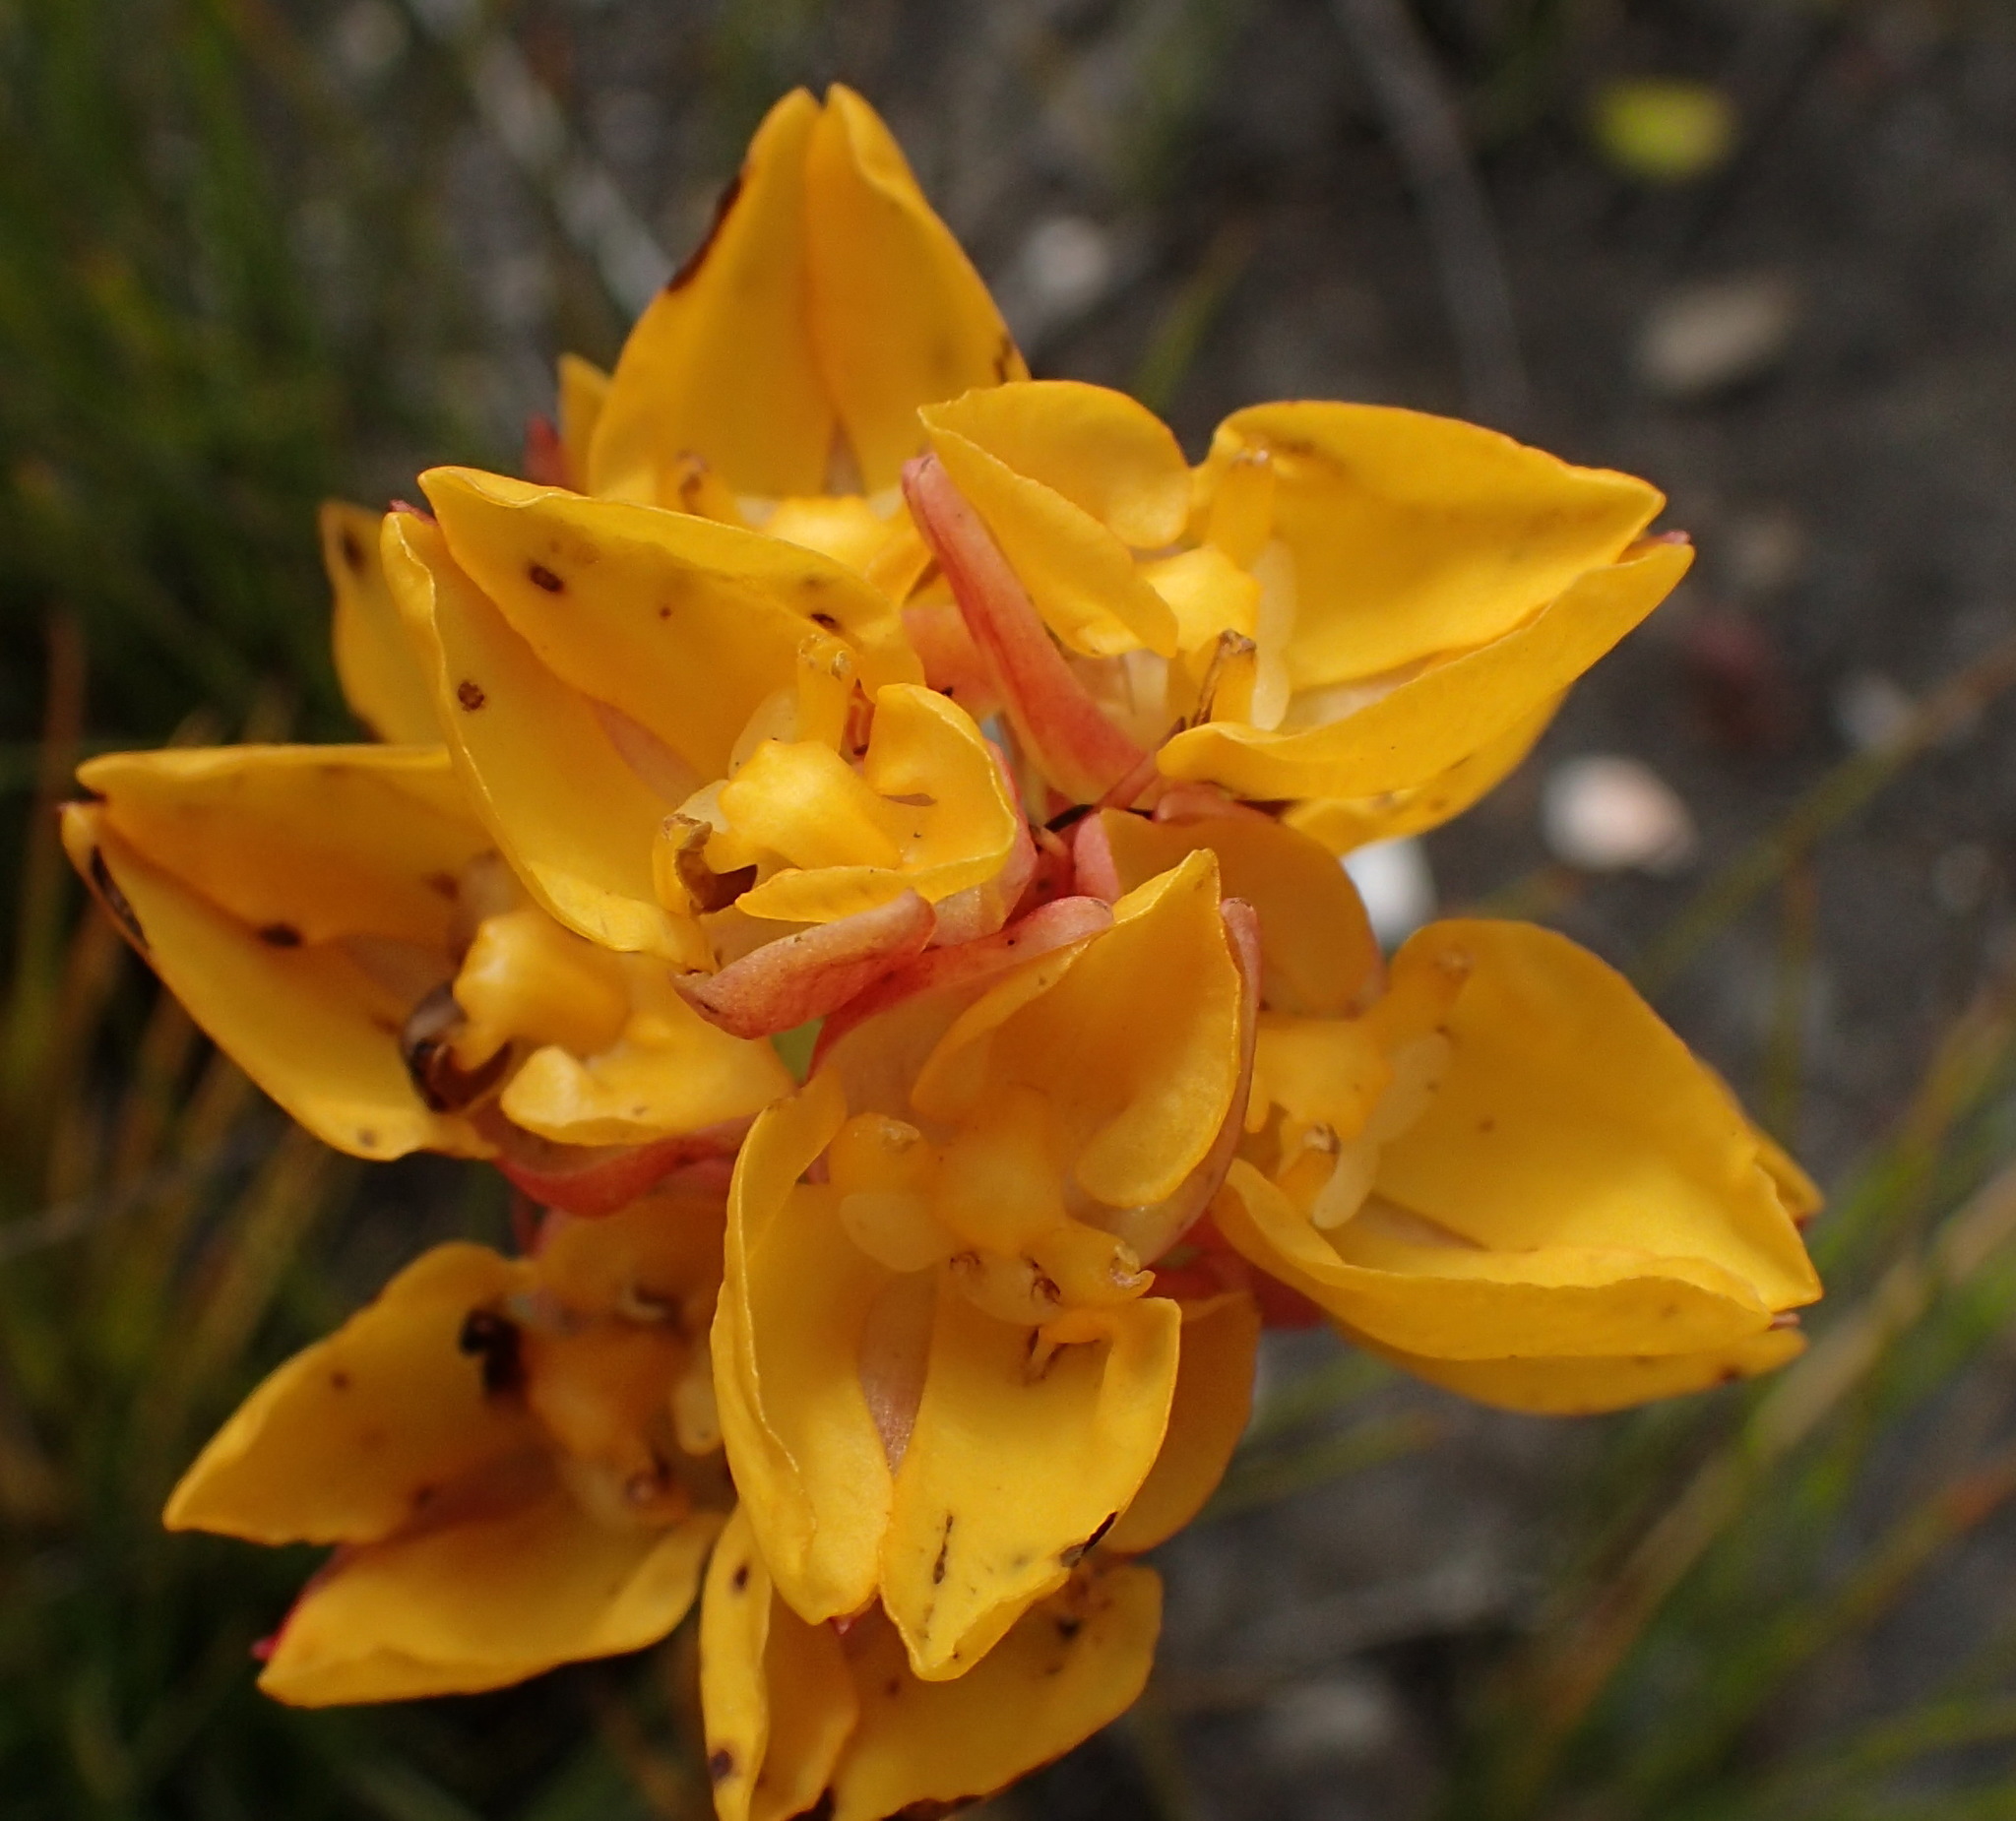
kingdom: Plantae
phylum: Tracheophyta
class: Liliopsida
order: Asparagales
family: Orchidaceae
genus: Ceratandra
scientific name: Ceratandra grandiflora
